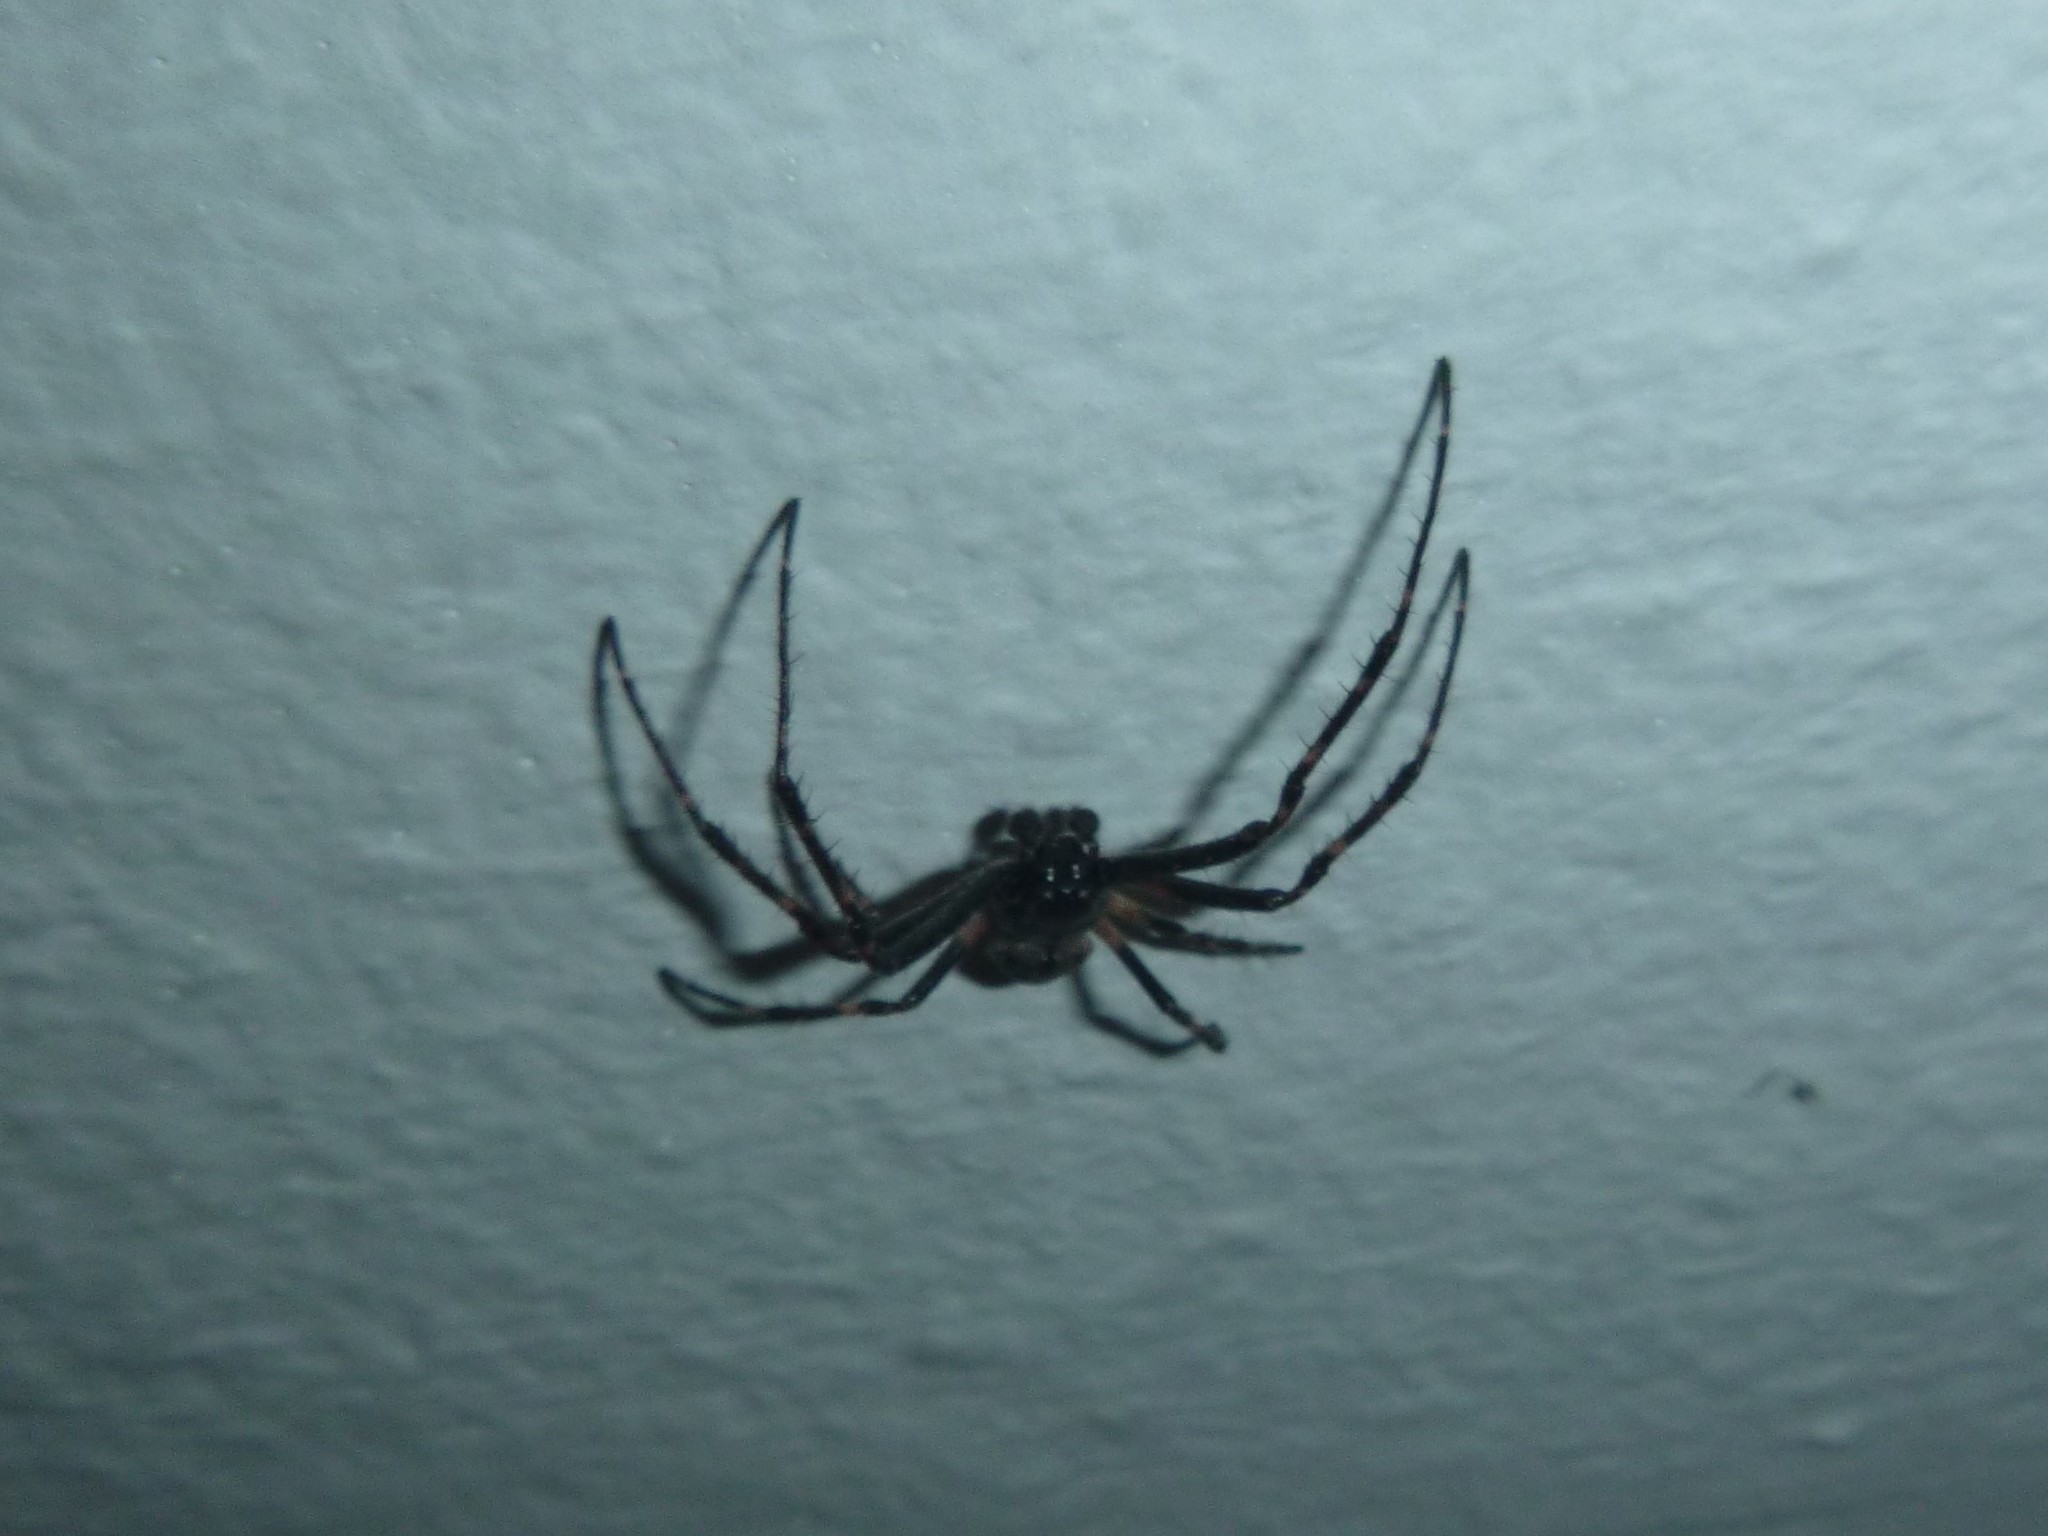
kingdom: Animalia
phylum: Arthropoda
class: Arachnida
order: Araneae
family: Araneidae
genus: Nuctenea
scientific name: Nuctenea umbratica
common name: Toad spider
